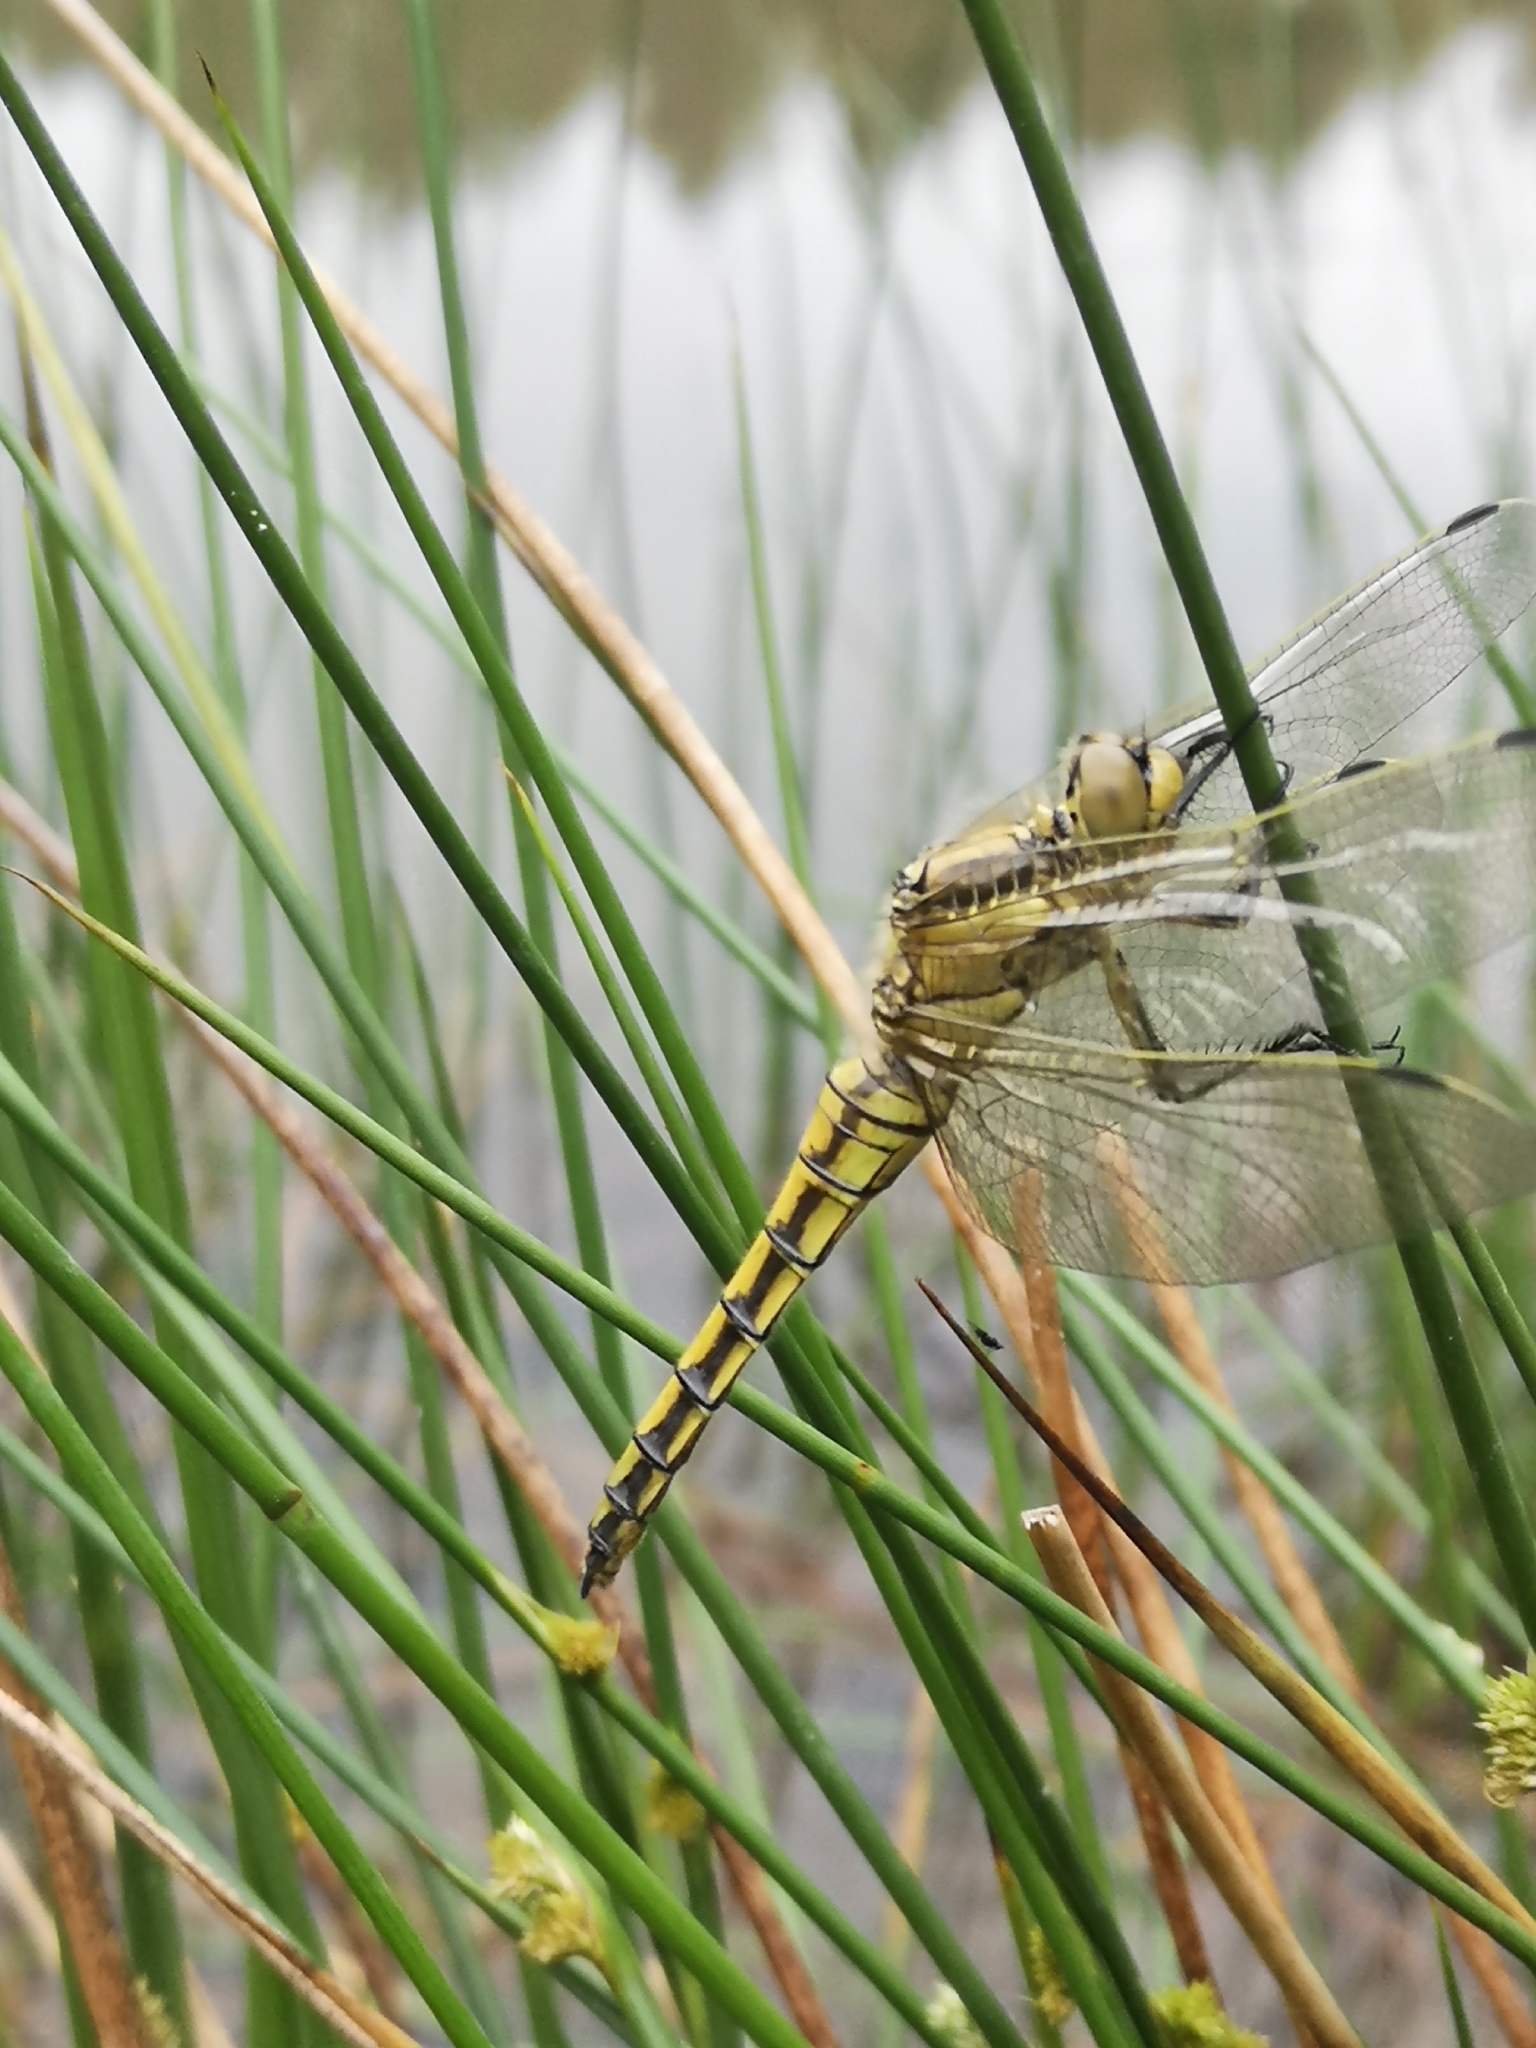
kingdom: Animalia
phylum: Arthropoda
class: Insecta
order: Odonata
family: Libellulidae
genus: Orthetrum
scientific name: Orthetrum cancellatum
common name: Black-tailed skimmer
